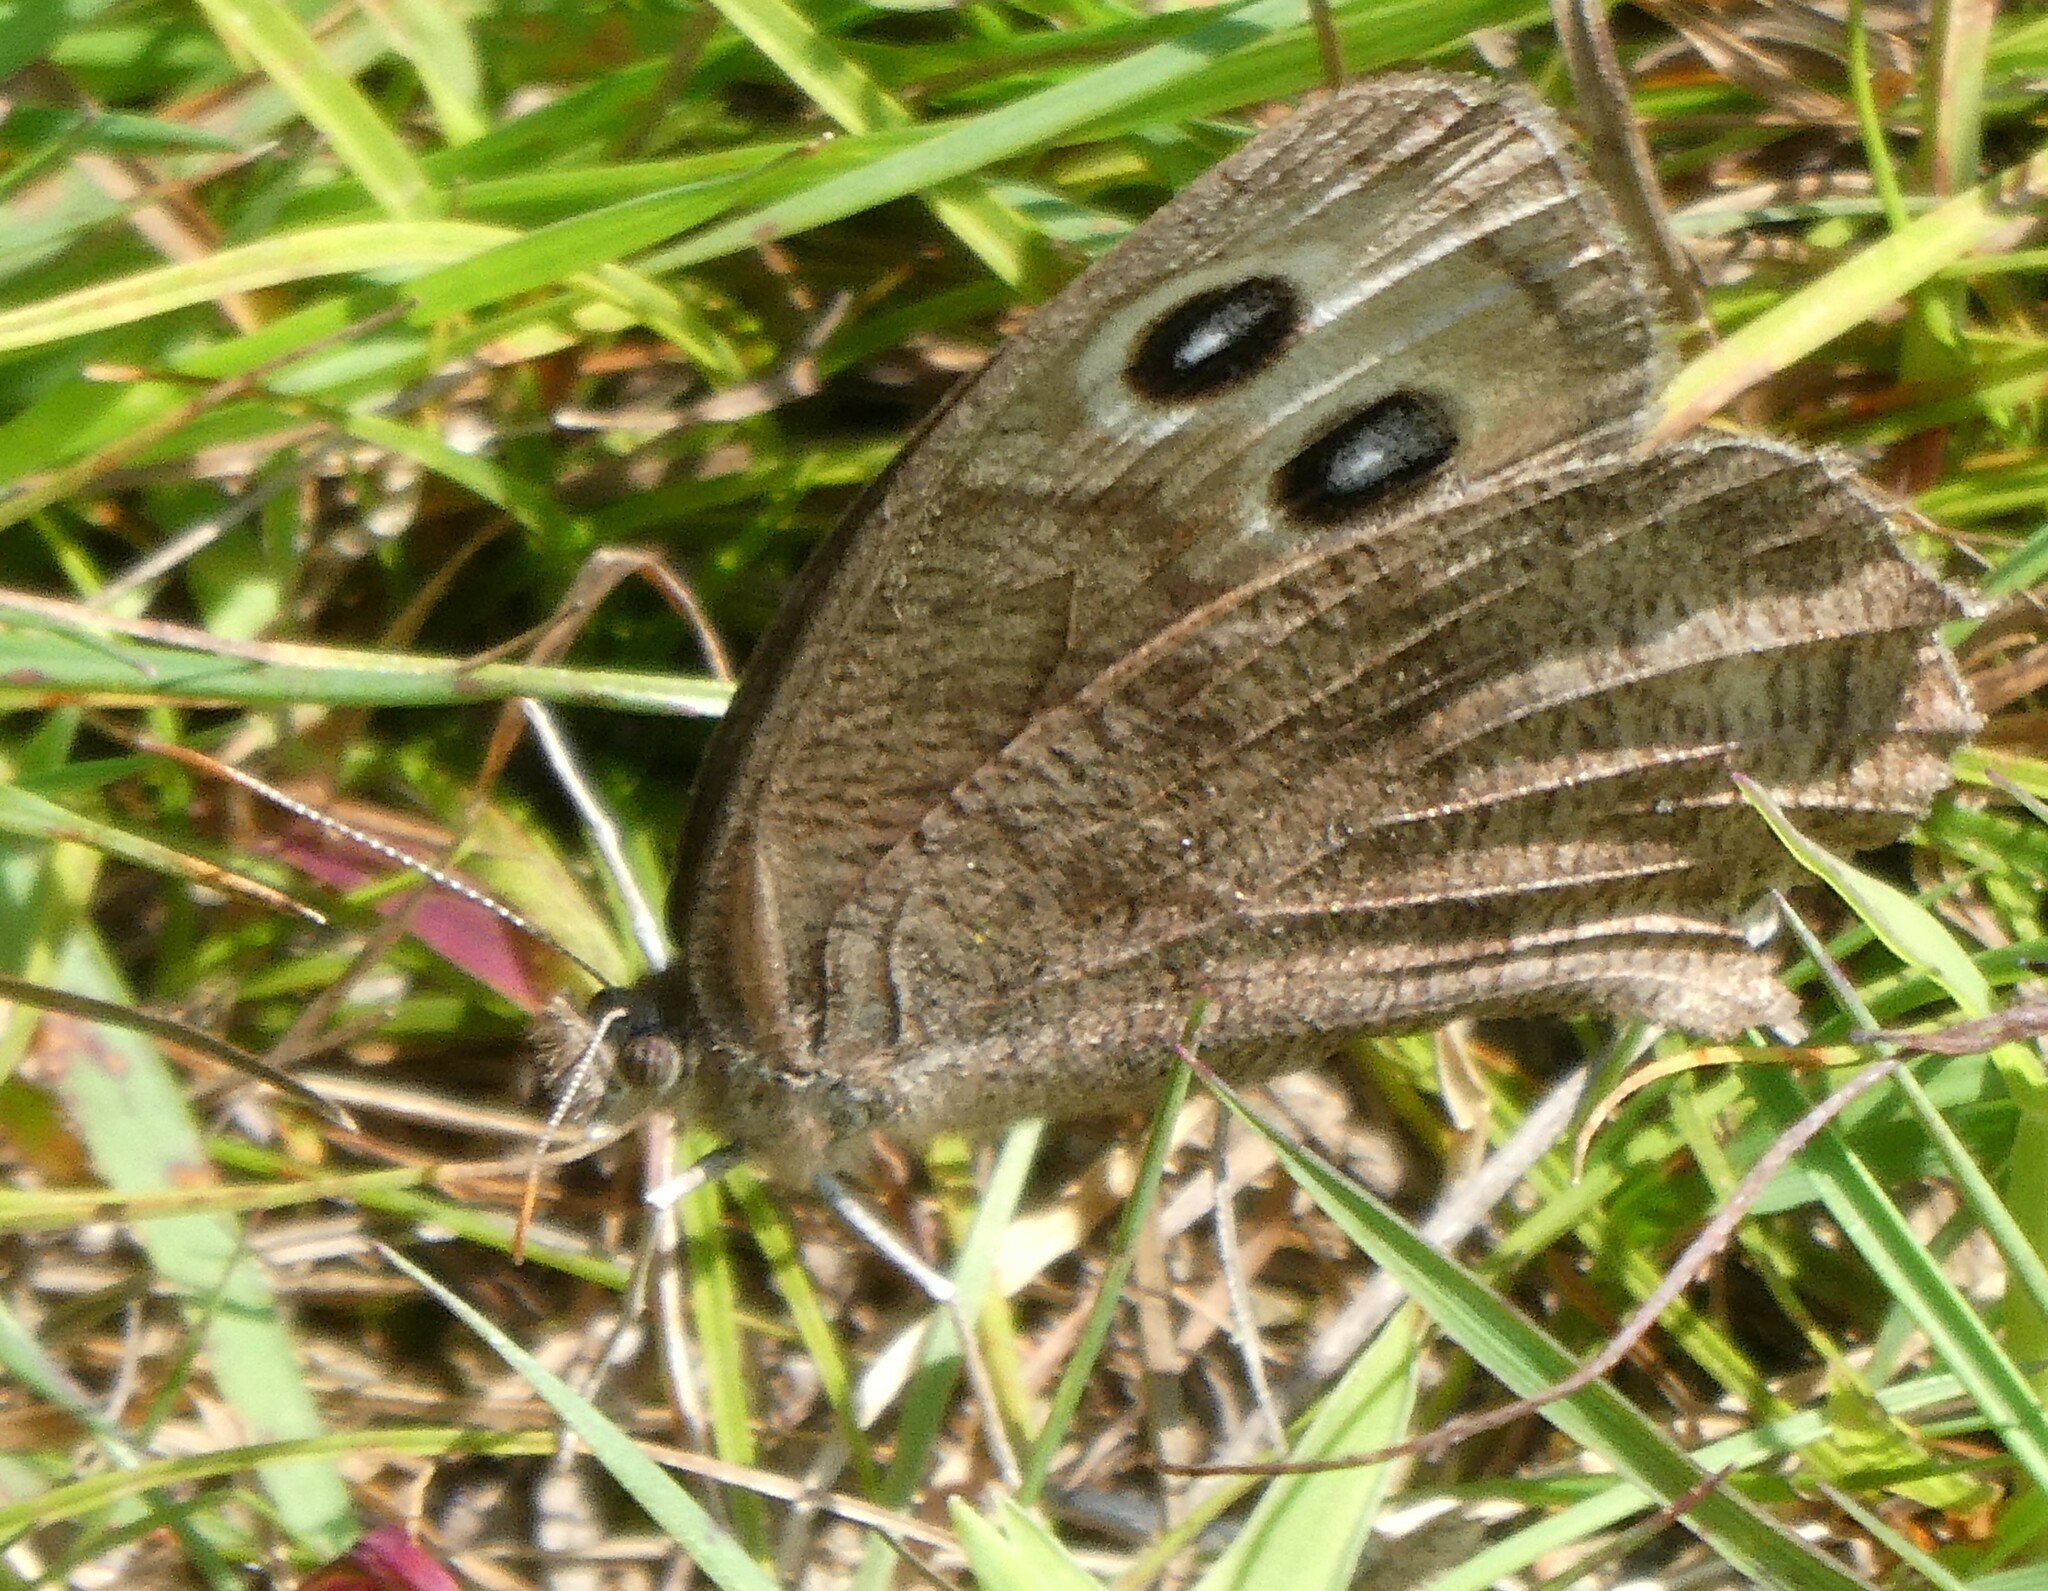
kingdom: Animalia
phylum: Arthropoda
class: Insecta
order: Lepidoptera
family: Nymphalidae
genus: Cercyonis
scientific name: Cercyonis pegala
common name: Common wood-nymph
